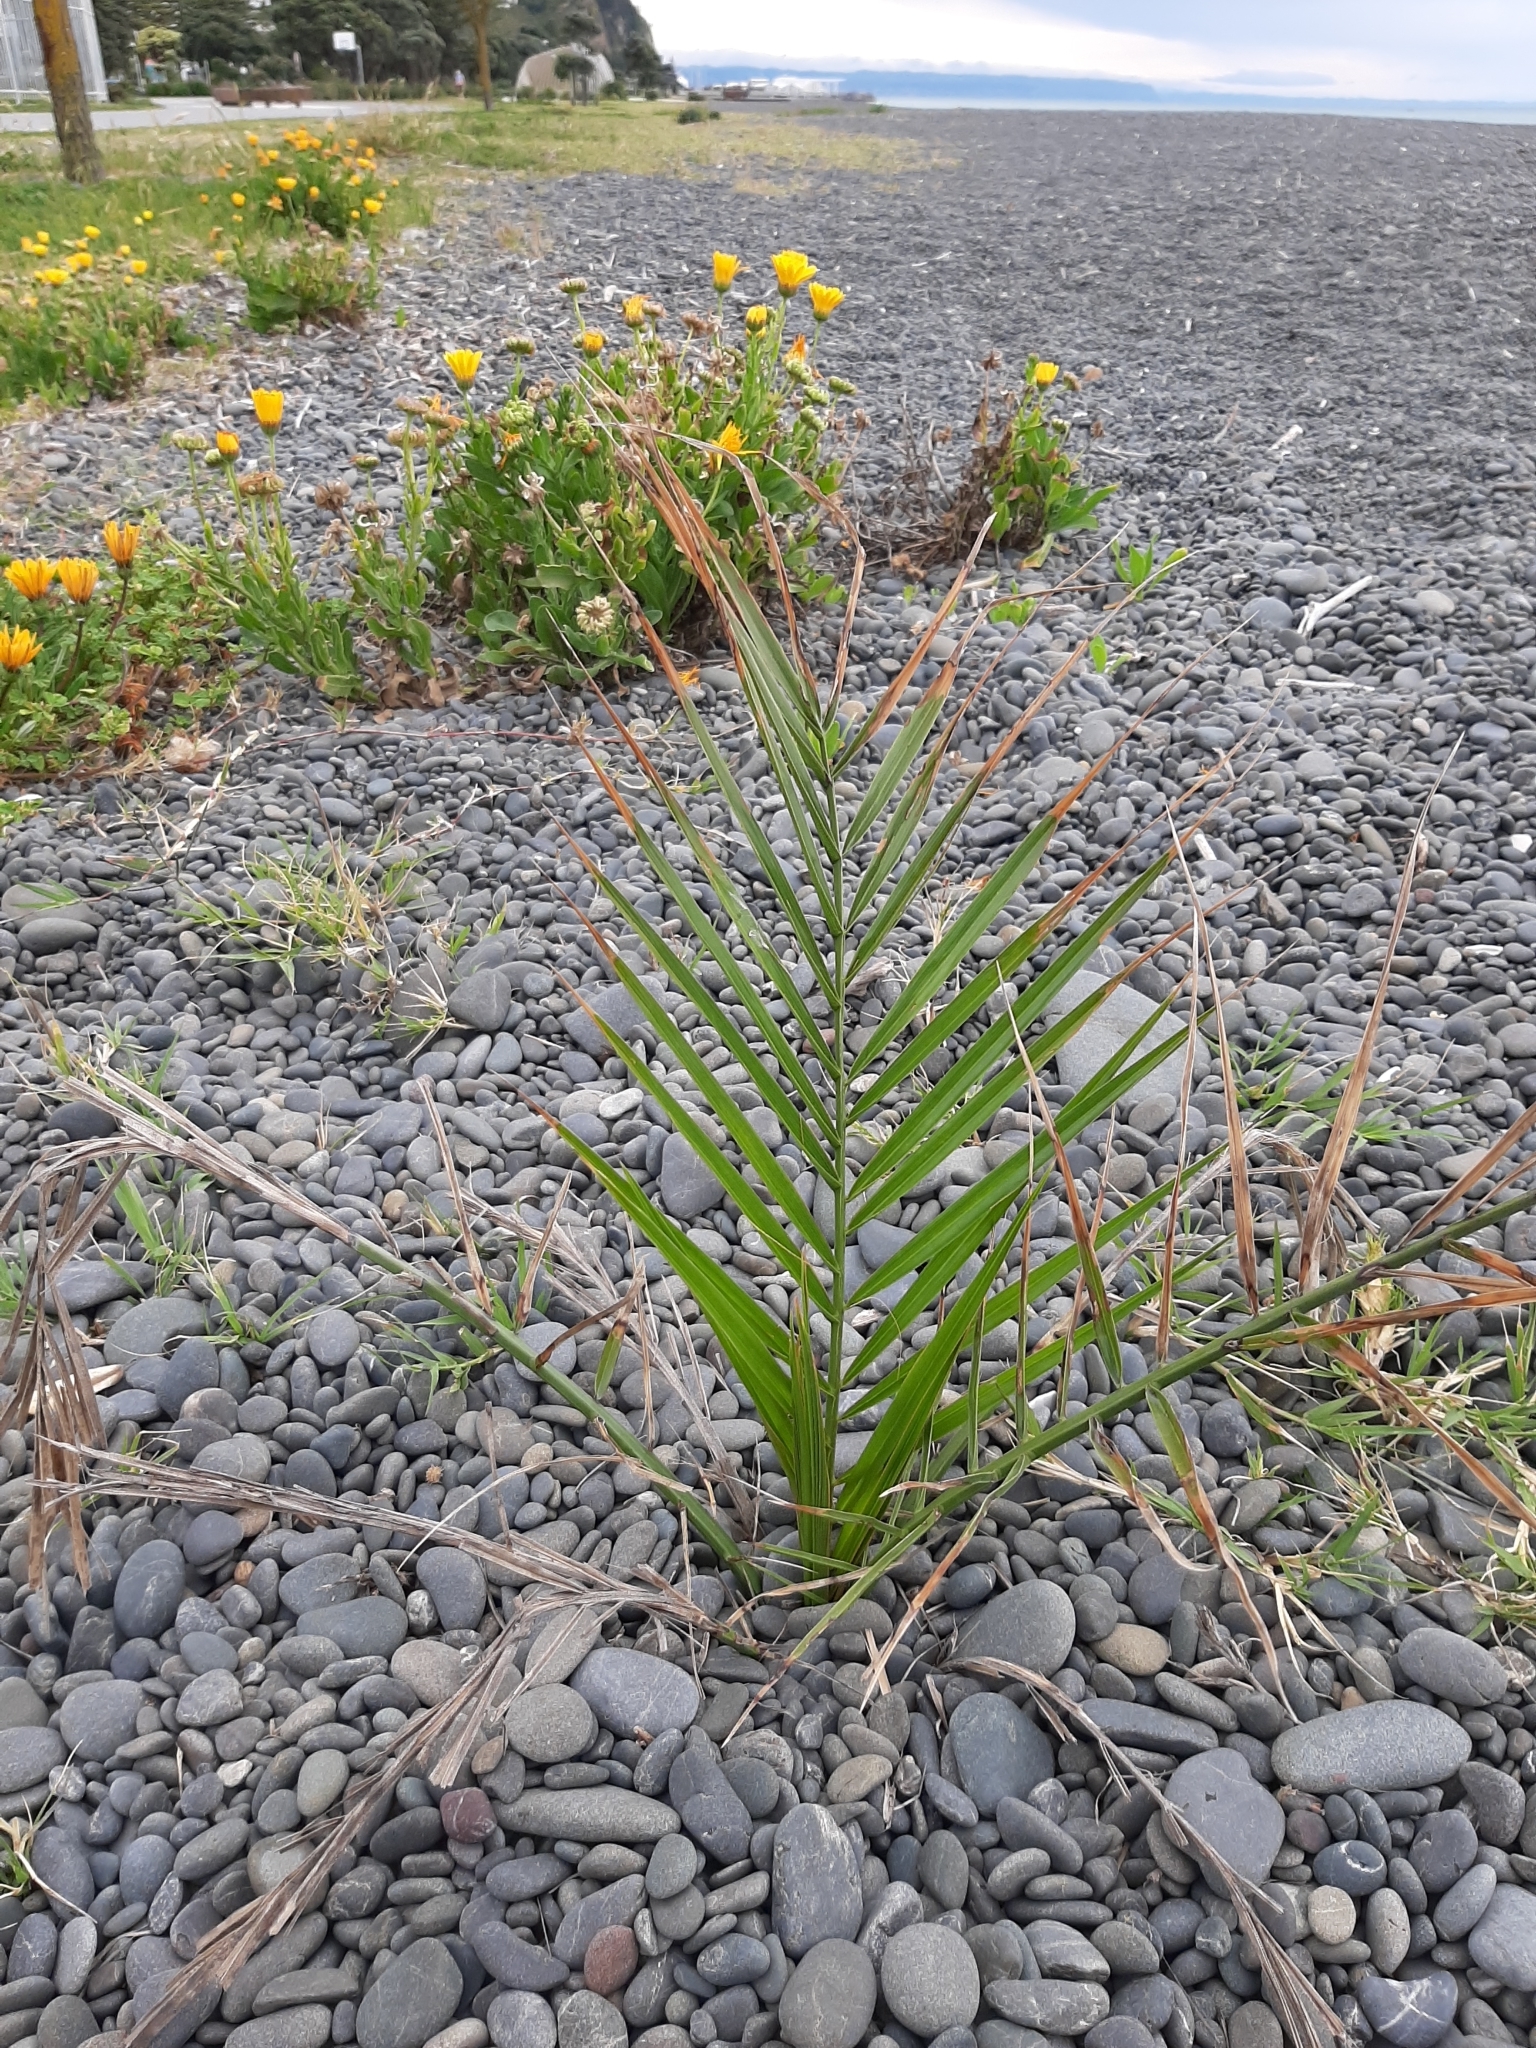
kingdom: Plantae
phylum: Tracheophyta
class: Liliopsida
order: Arecales
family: Arecaceae
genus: Phoenix
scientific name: Phoenix canariensis
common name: Canary island date palm
